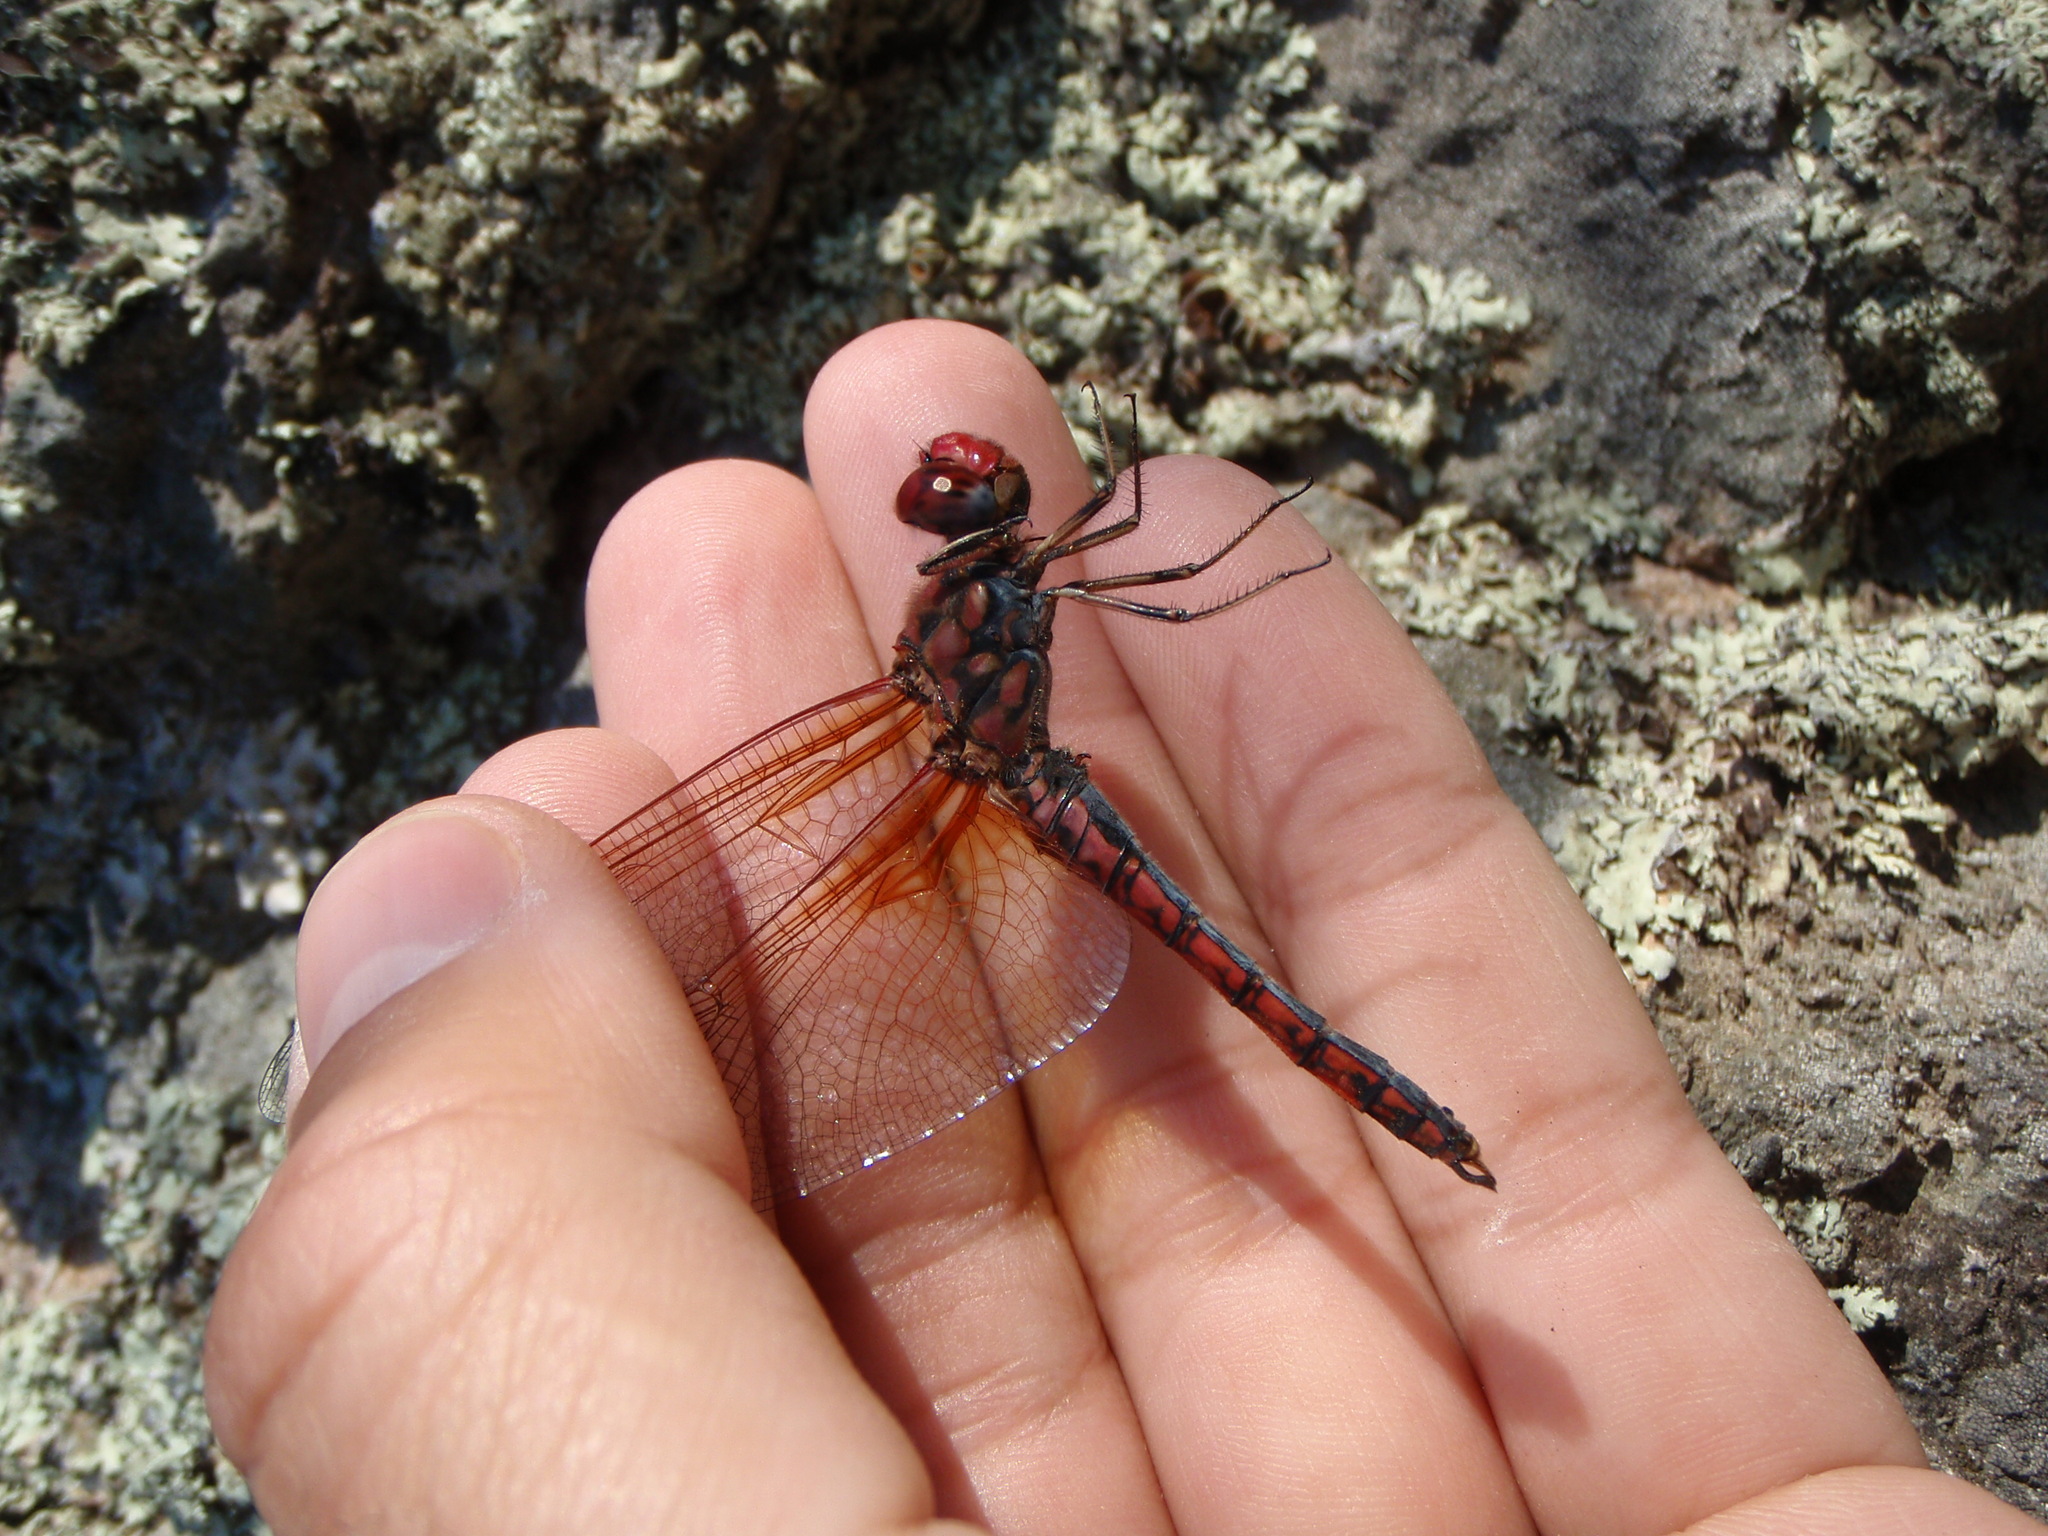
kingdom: Animalia
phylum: Arthropoda
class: Insecta
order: Odonata
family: Libellulidae
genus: Paltothemis
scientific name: Paltothemis lineatipes
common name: Red rock skimmer
